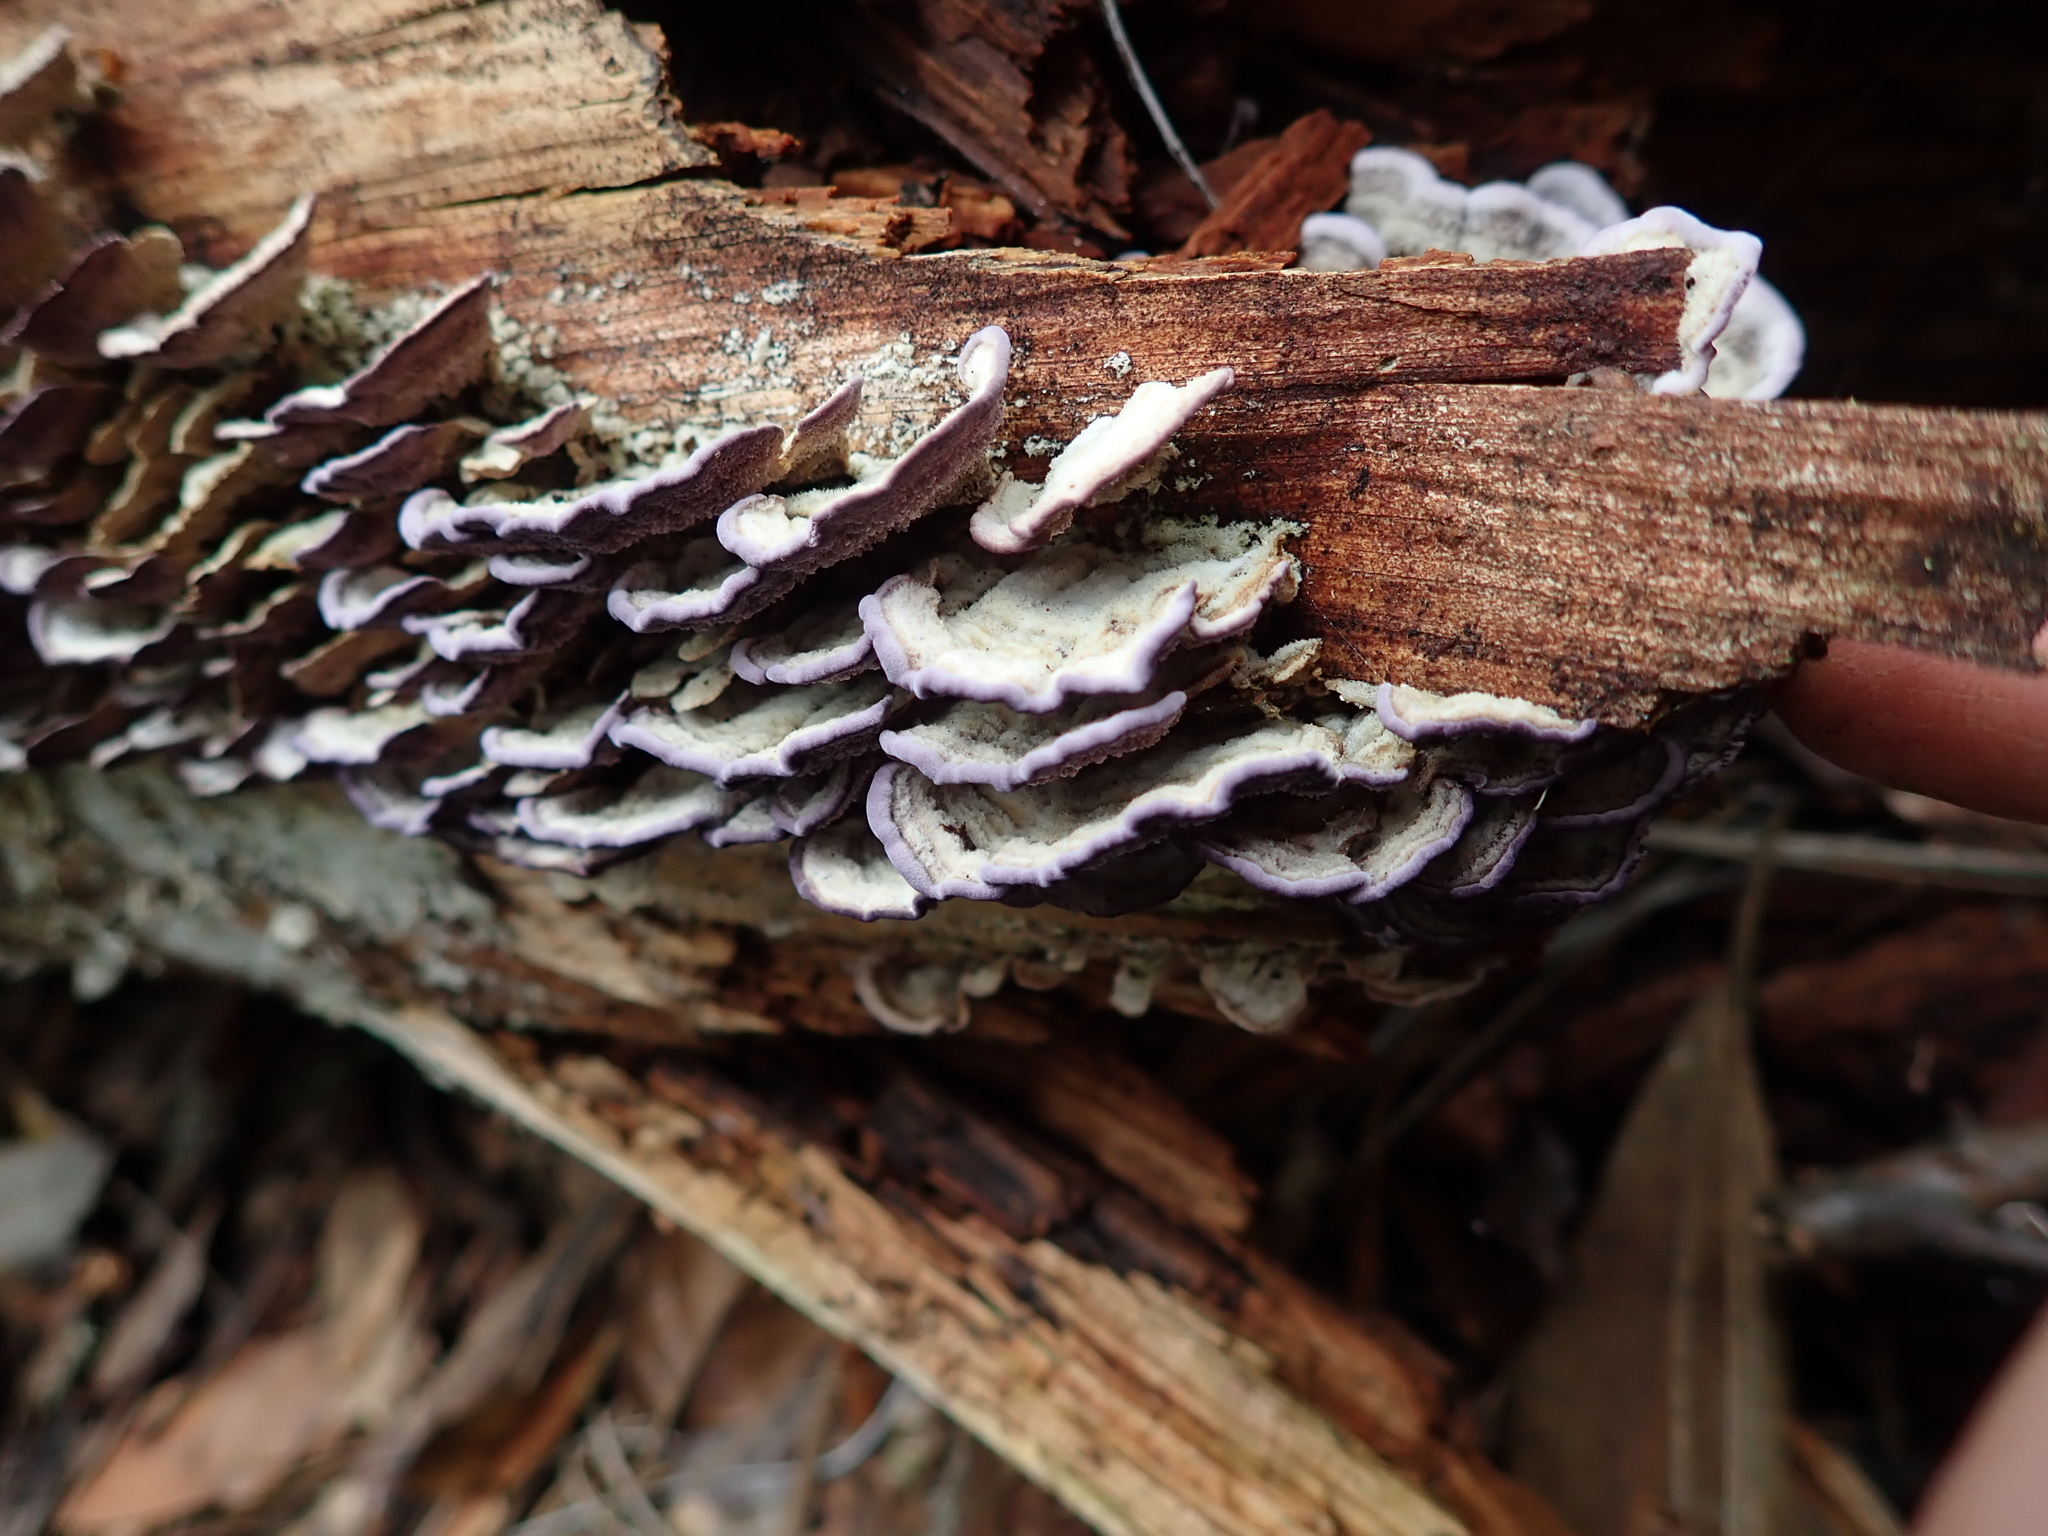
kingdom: Fungi
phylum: Basidiomycota
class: Agaricomycetes
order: Hymenochaetales
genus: Trichaptum
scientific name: Trichaptum abietinum
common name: Purplepore bracket
